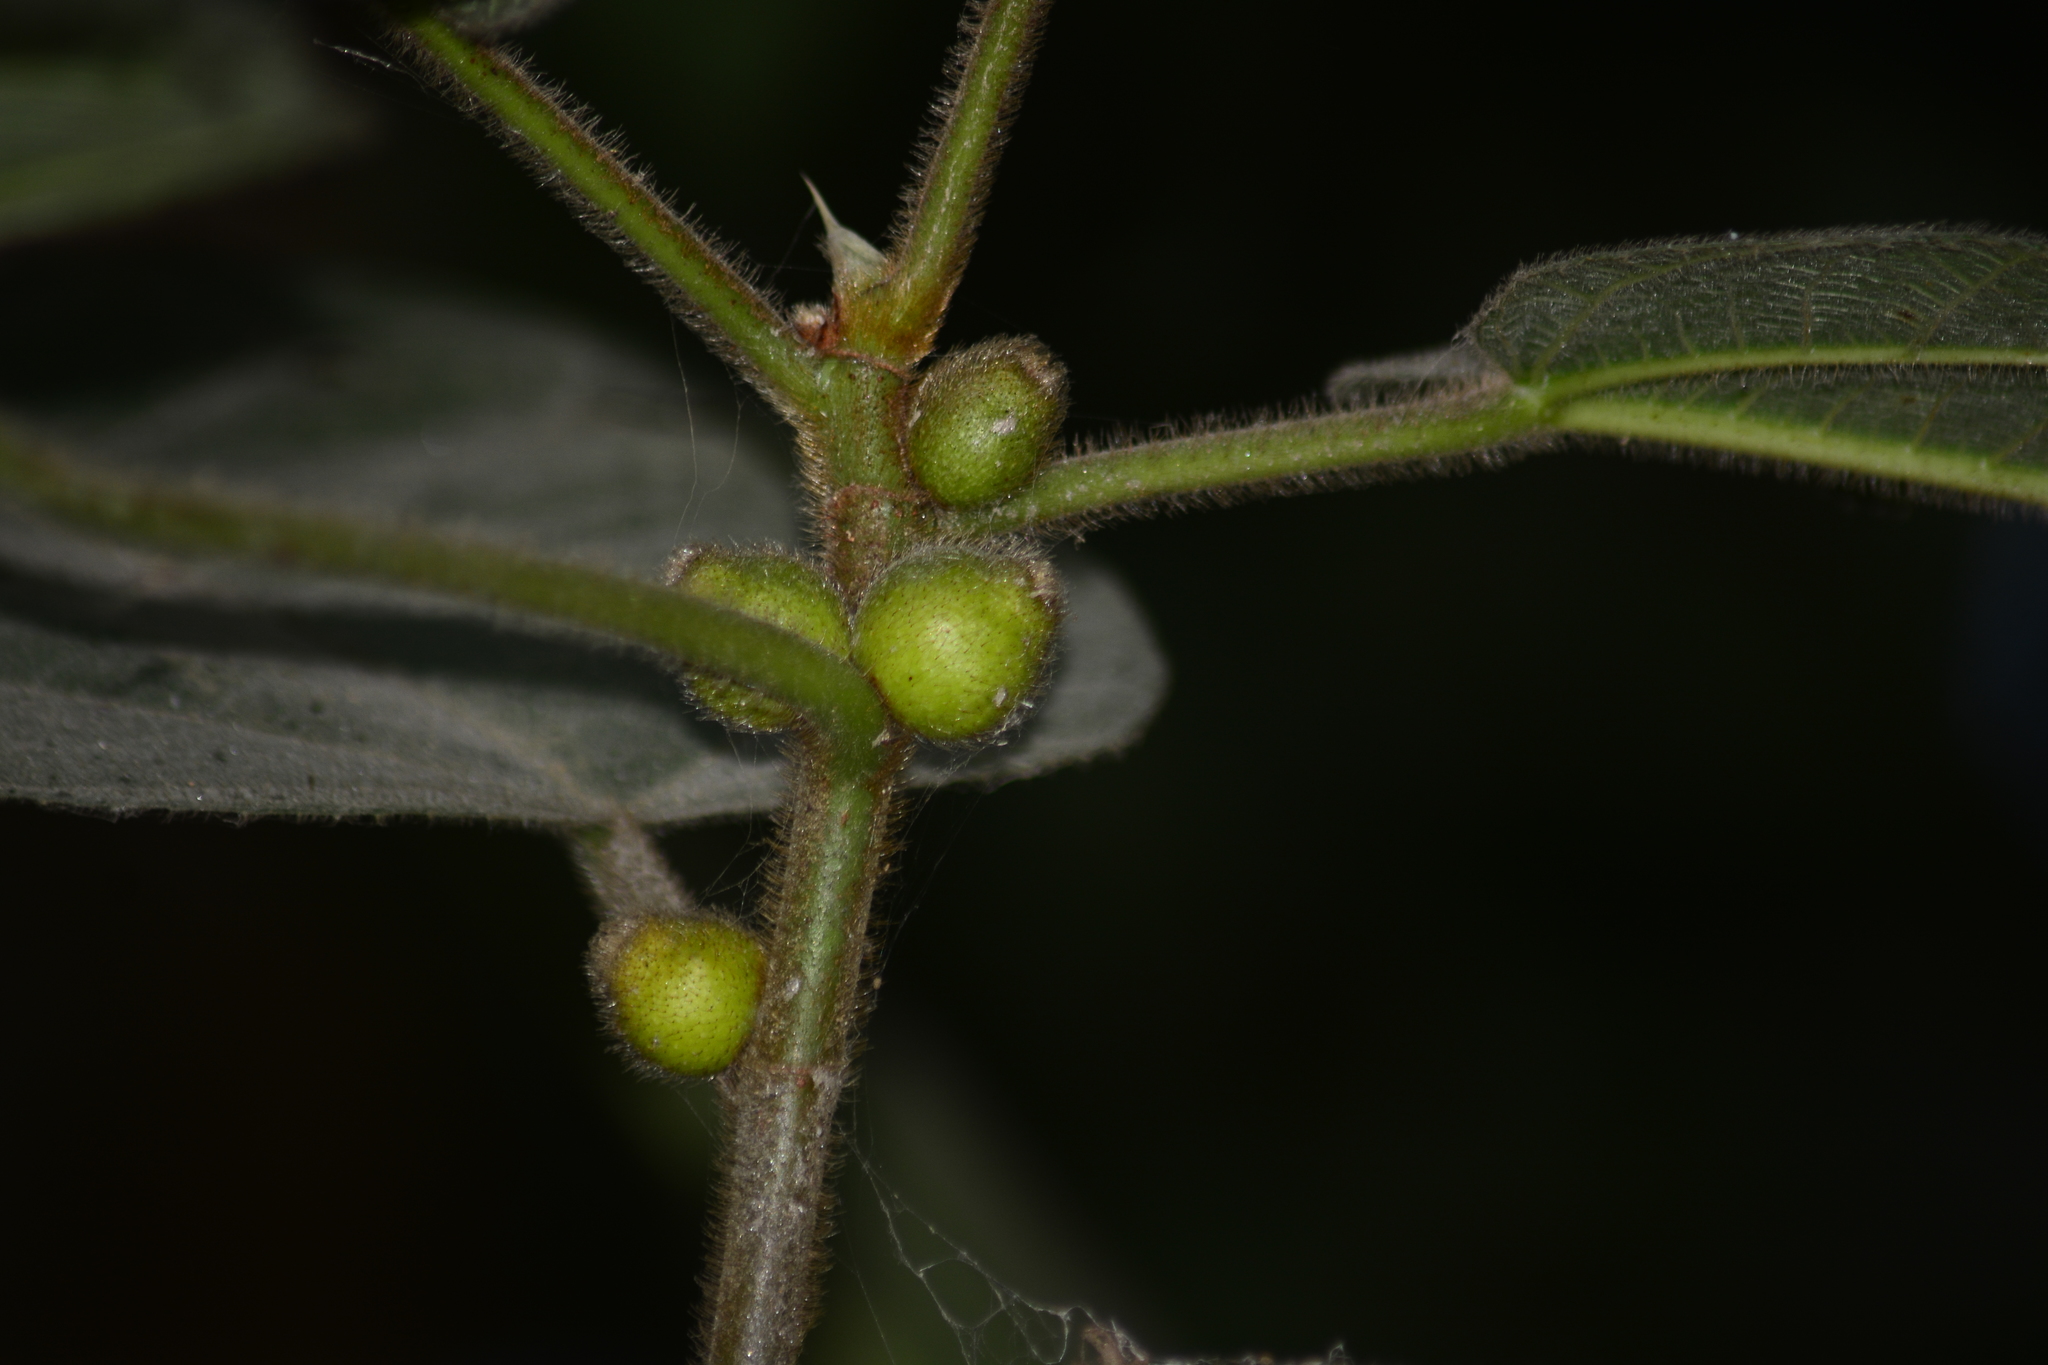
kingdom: Plantae
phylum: Tracheophyta
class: Magnoliopsida
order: Rosales
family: Moraceae
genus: Ficus
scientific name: Ficus simplicissima
